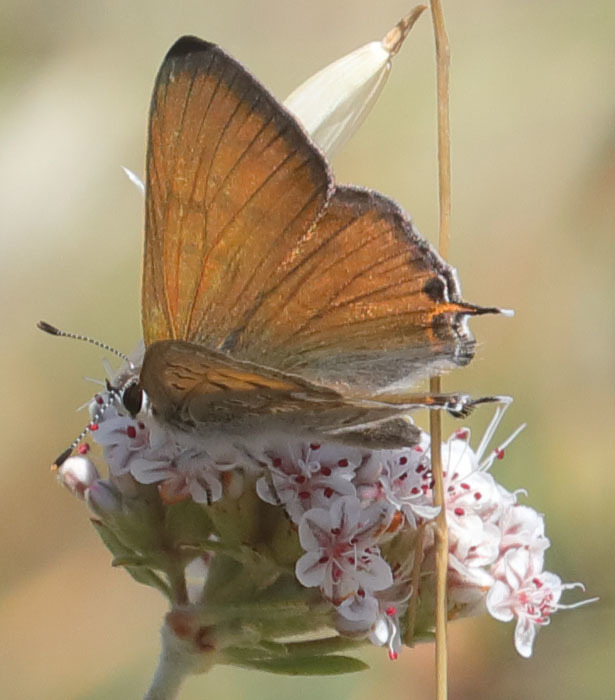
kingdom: Animalia
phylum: Arthropoda
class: Insecta
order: Lepidoptera
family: Lycaenidae
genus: Tharsalea
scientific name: Tharsalea arota
